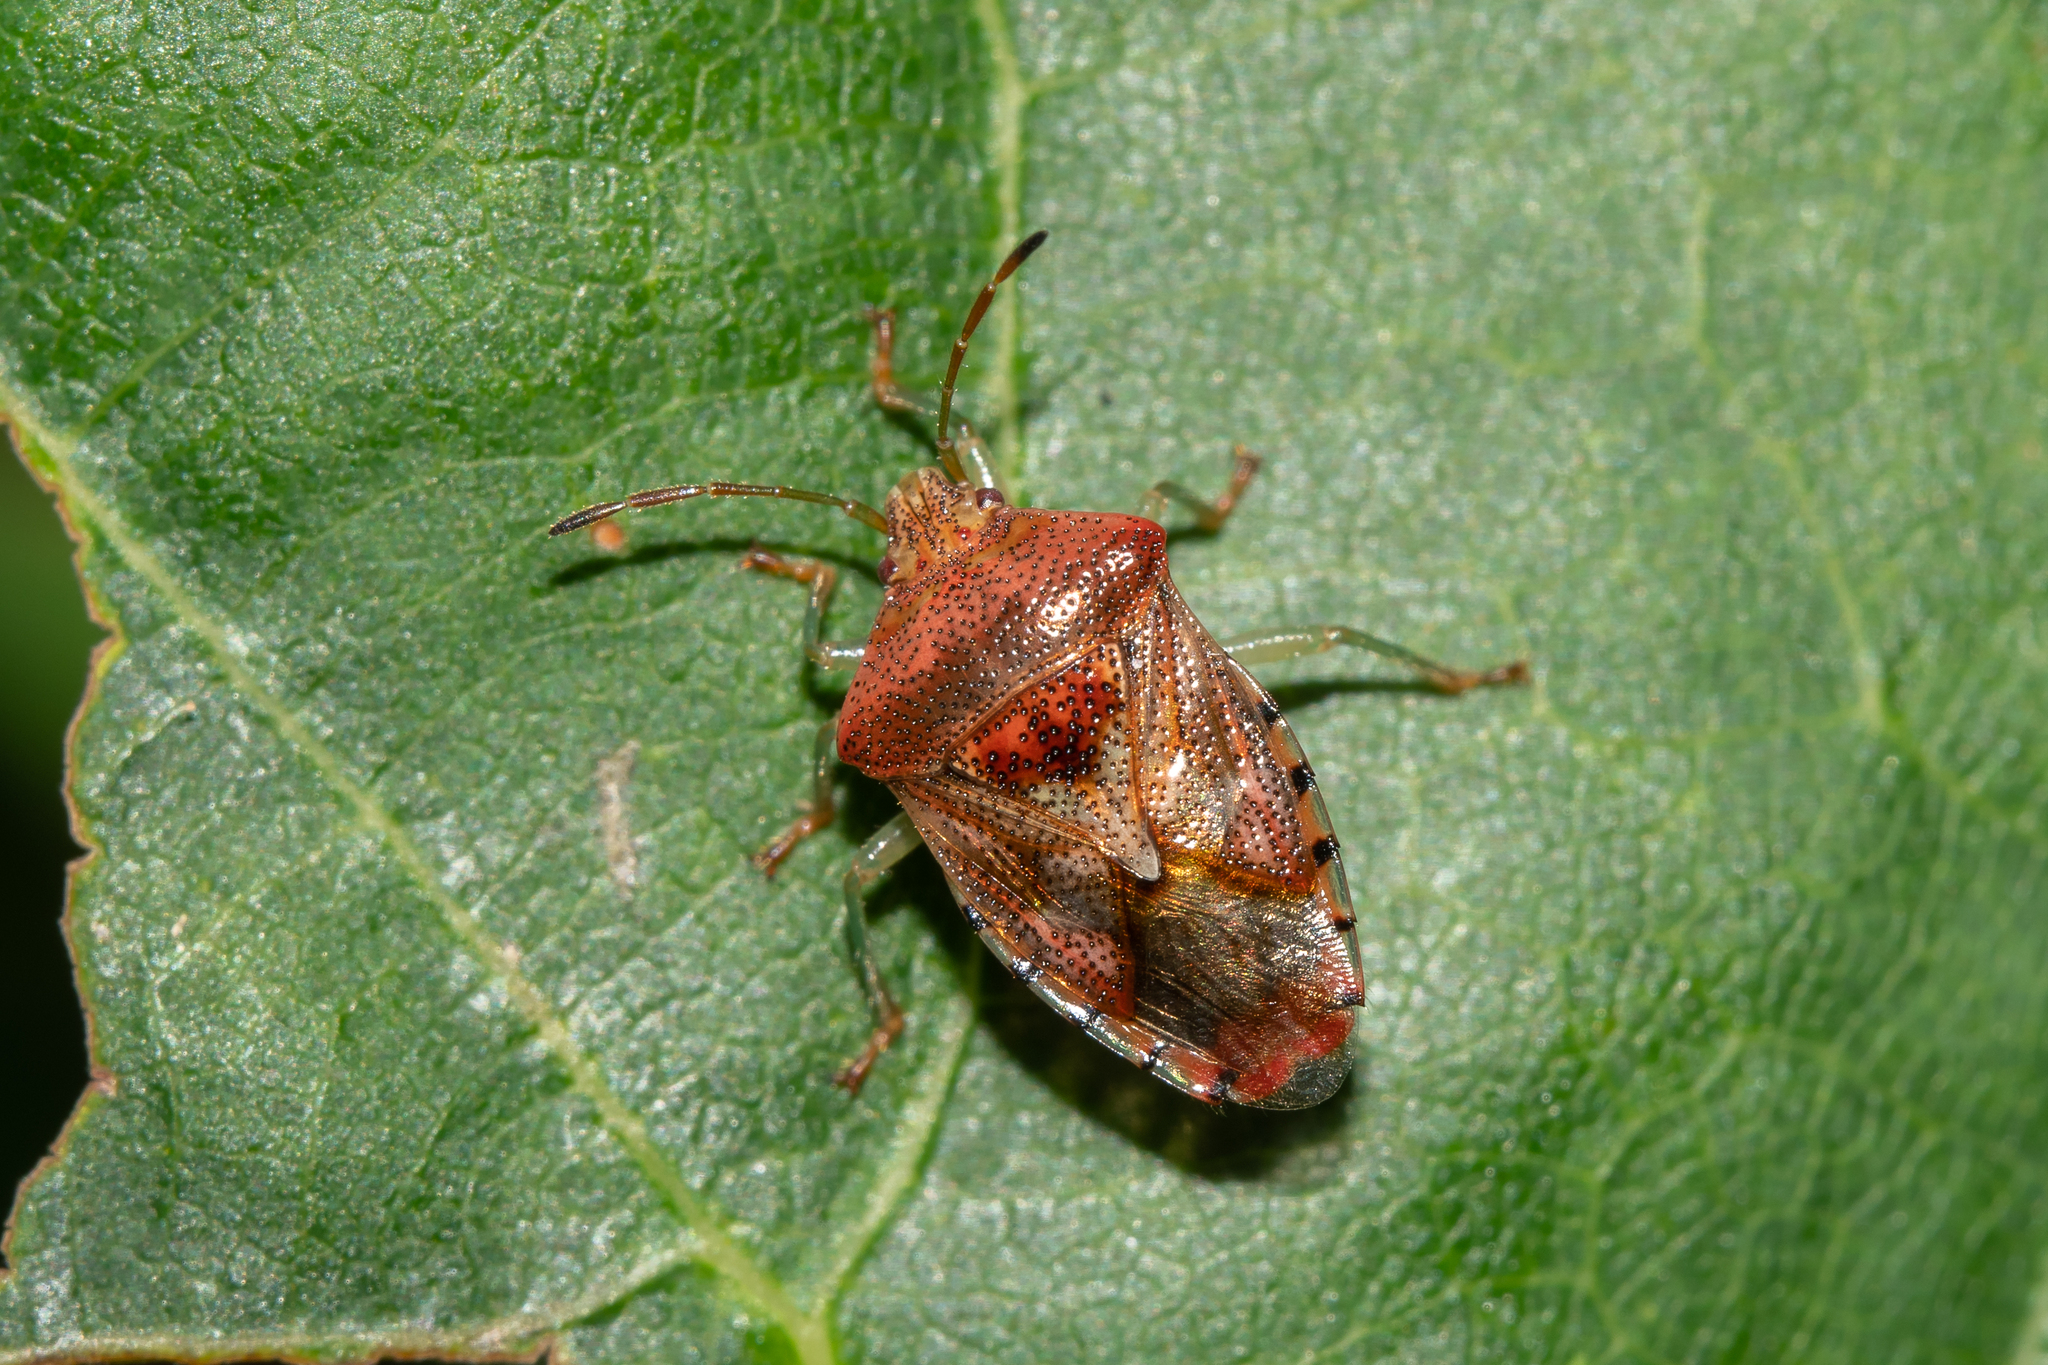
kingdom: Animalia
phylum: Arthropoda
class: Insecta
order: Hemiptera
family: Acanthosomatidae
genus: Elasmucha
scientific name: Elasmucha grisea
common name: Parent bug
